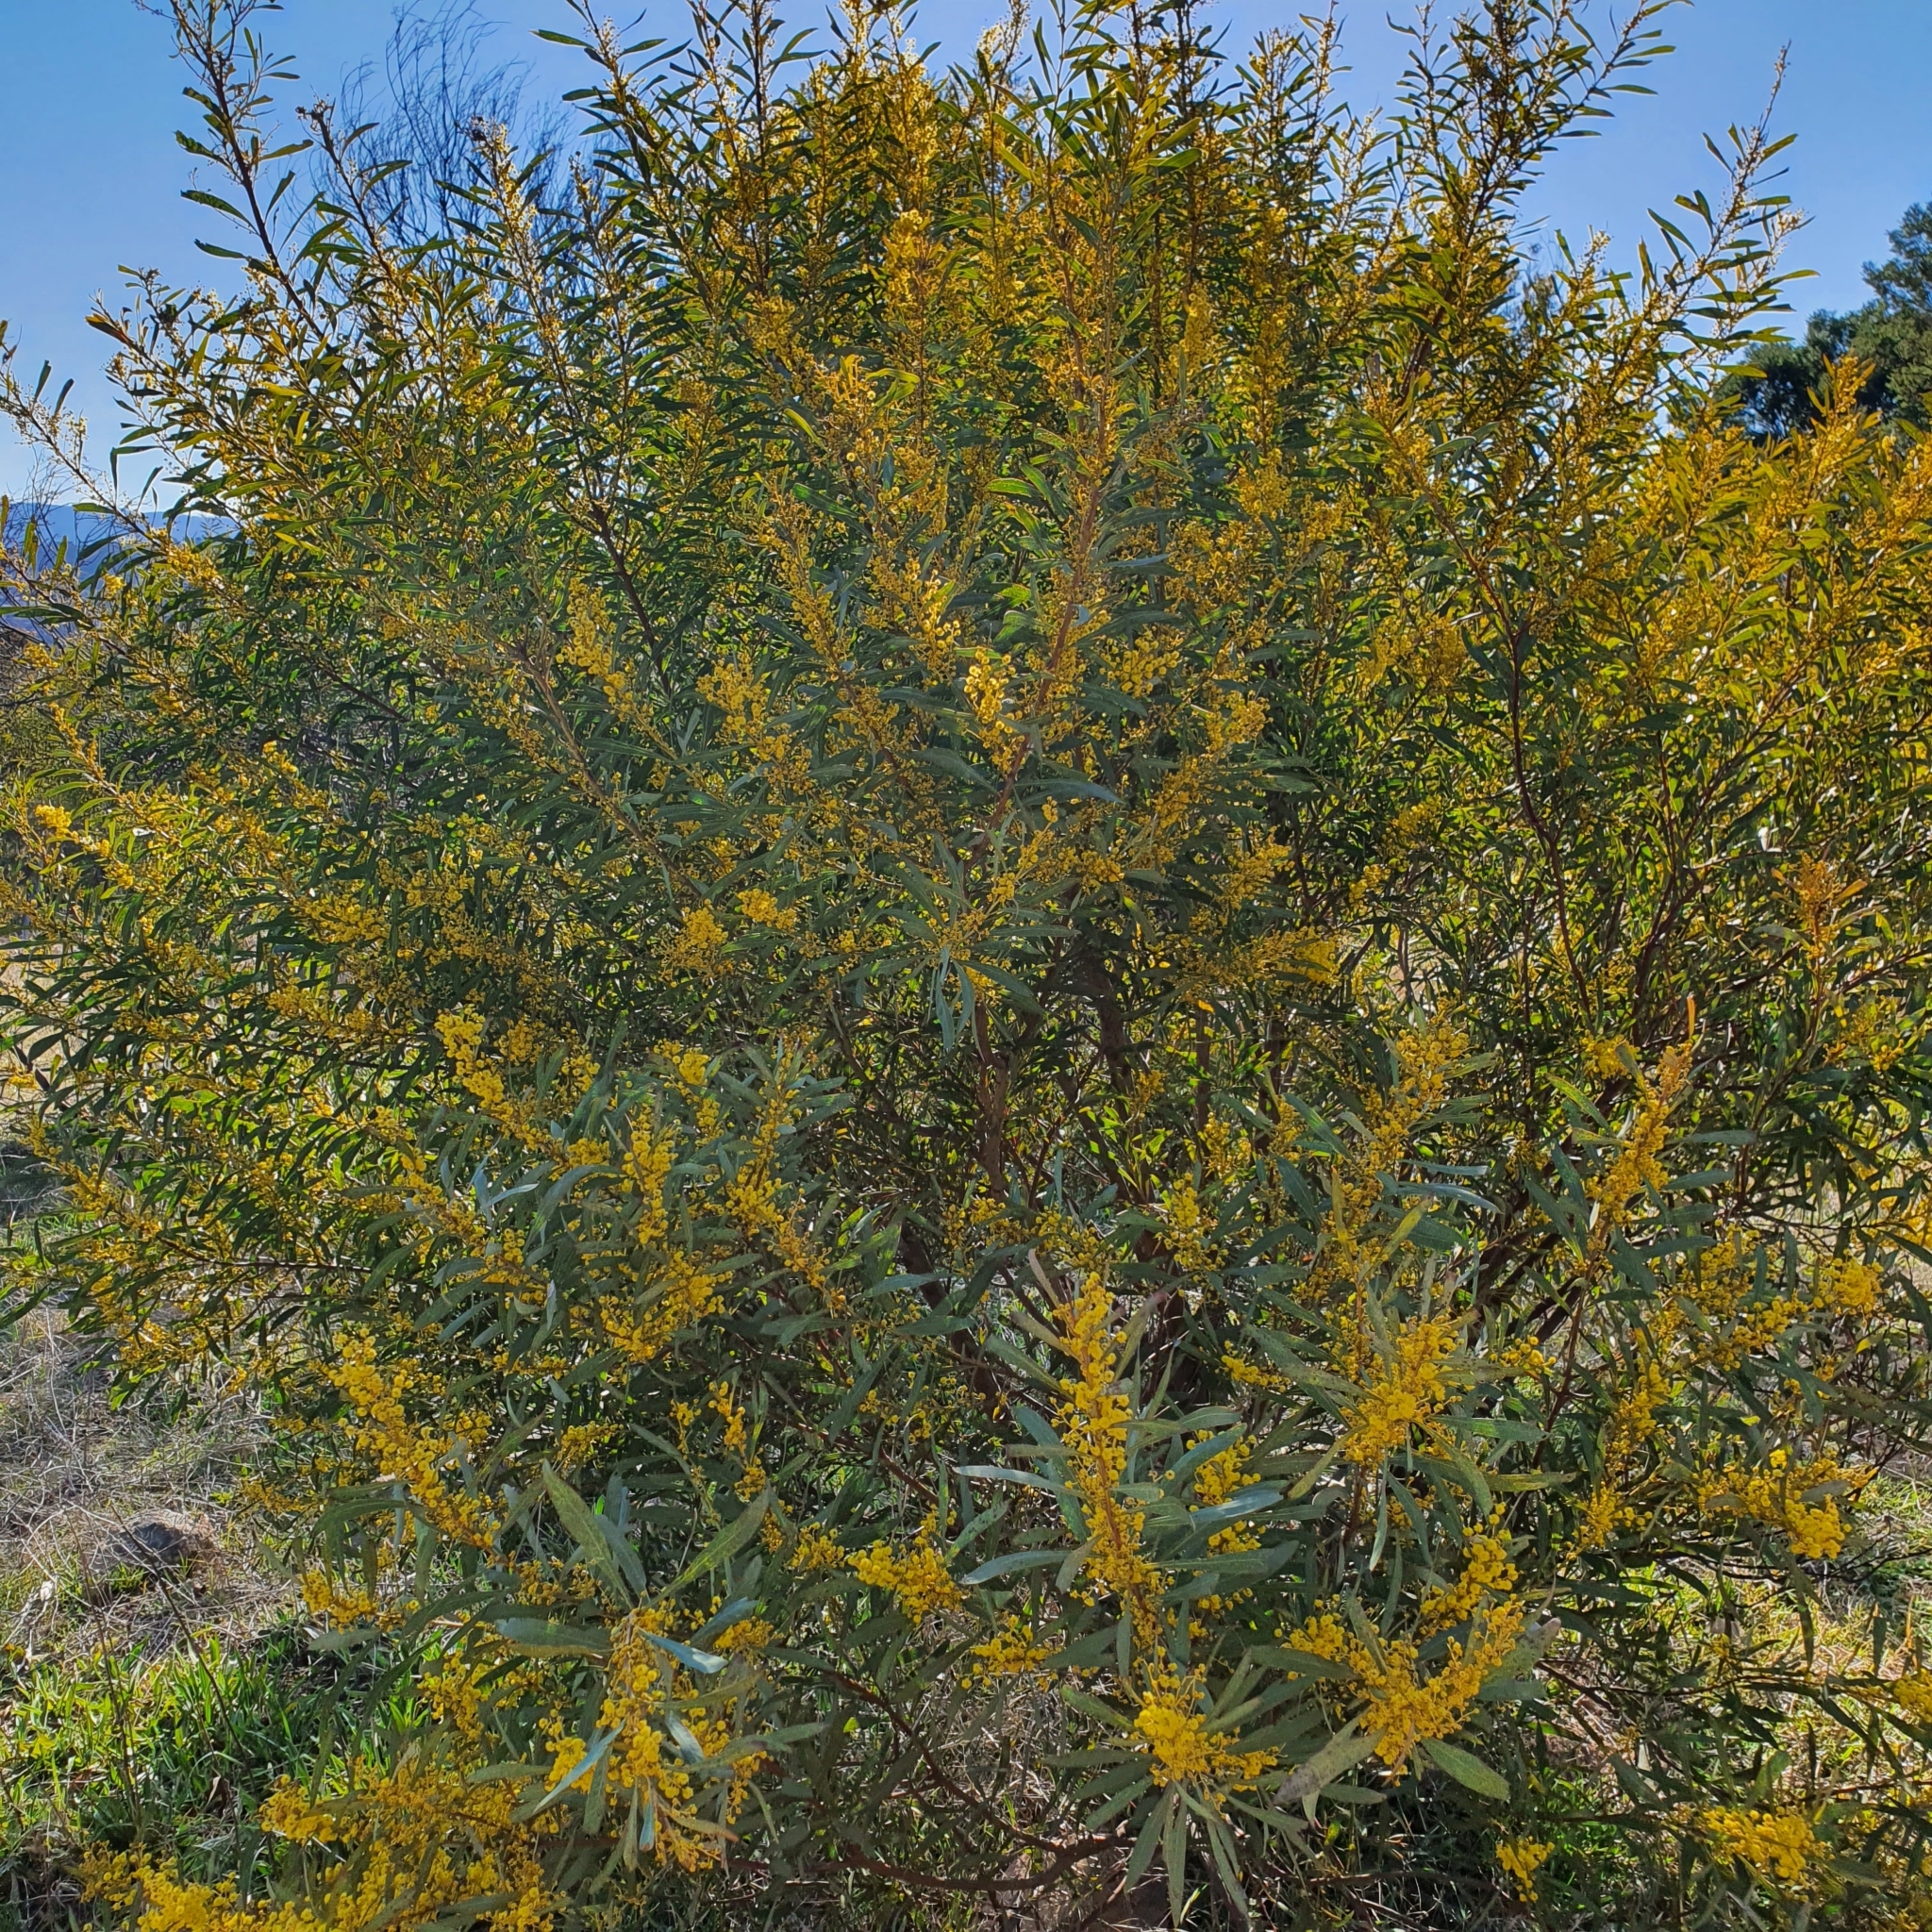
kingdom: Plantae
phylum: Tracheophyta
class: Magnoliopsida
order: Fabales
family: Fabaceae
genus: Acacia
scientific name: Acacia rubida
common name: Red leaf wattle
